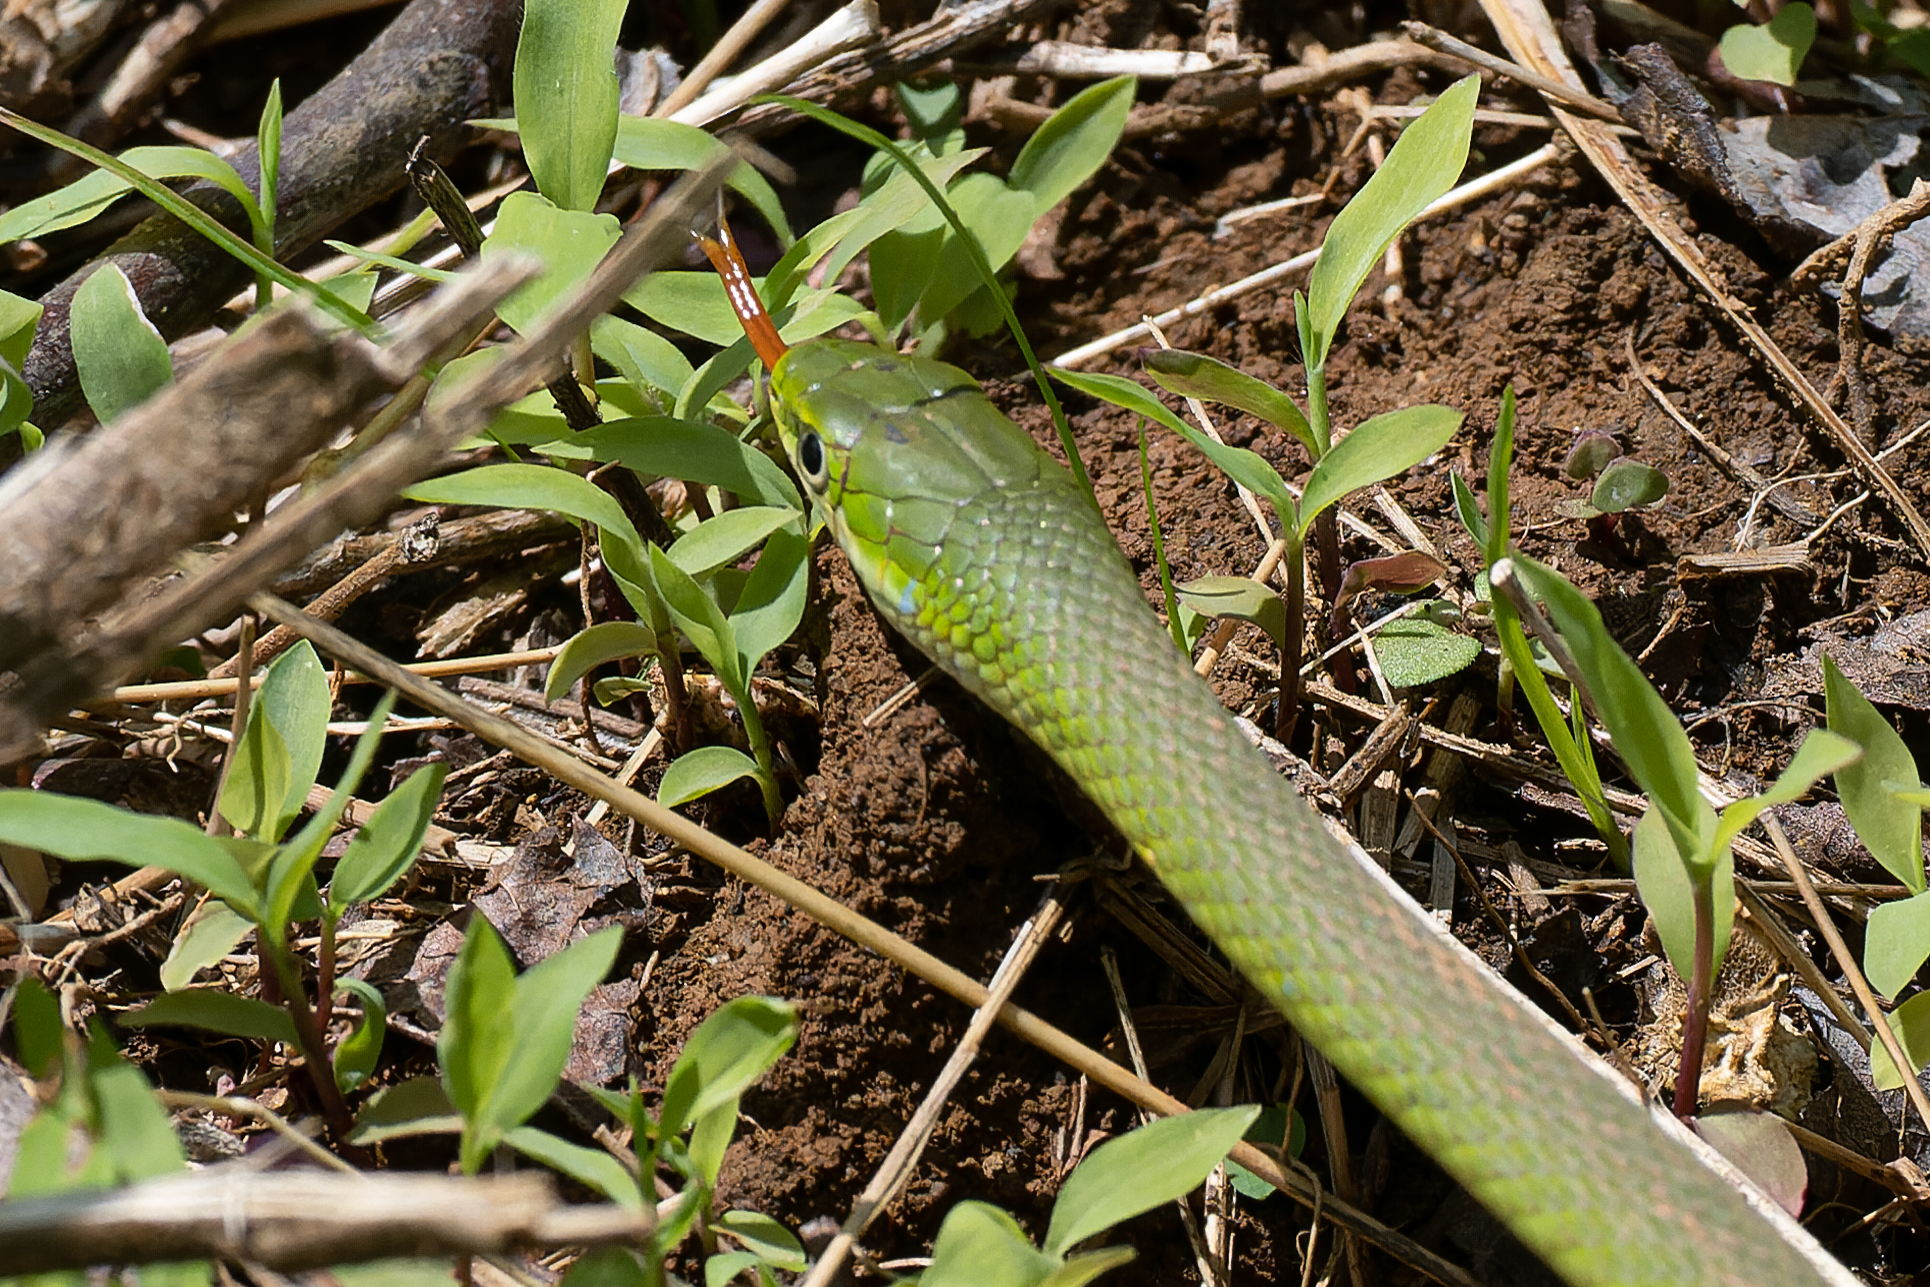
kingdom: Animalia
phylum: Chordata
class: Squamata
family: Colubridae
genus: Opheodrys
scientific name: Opheodrys aestivus
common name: Rough greensnake
